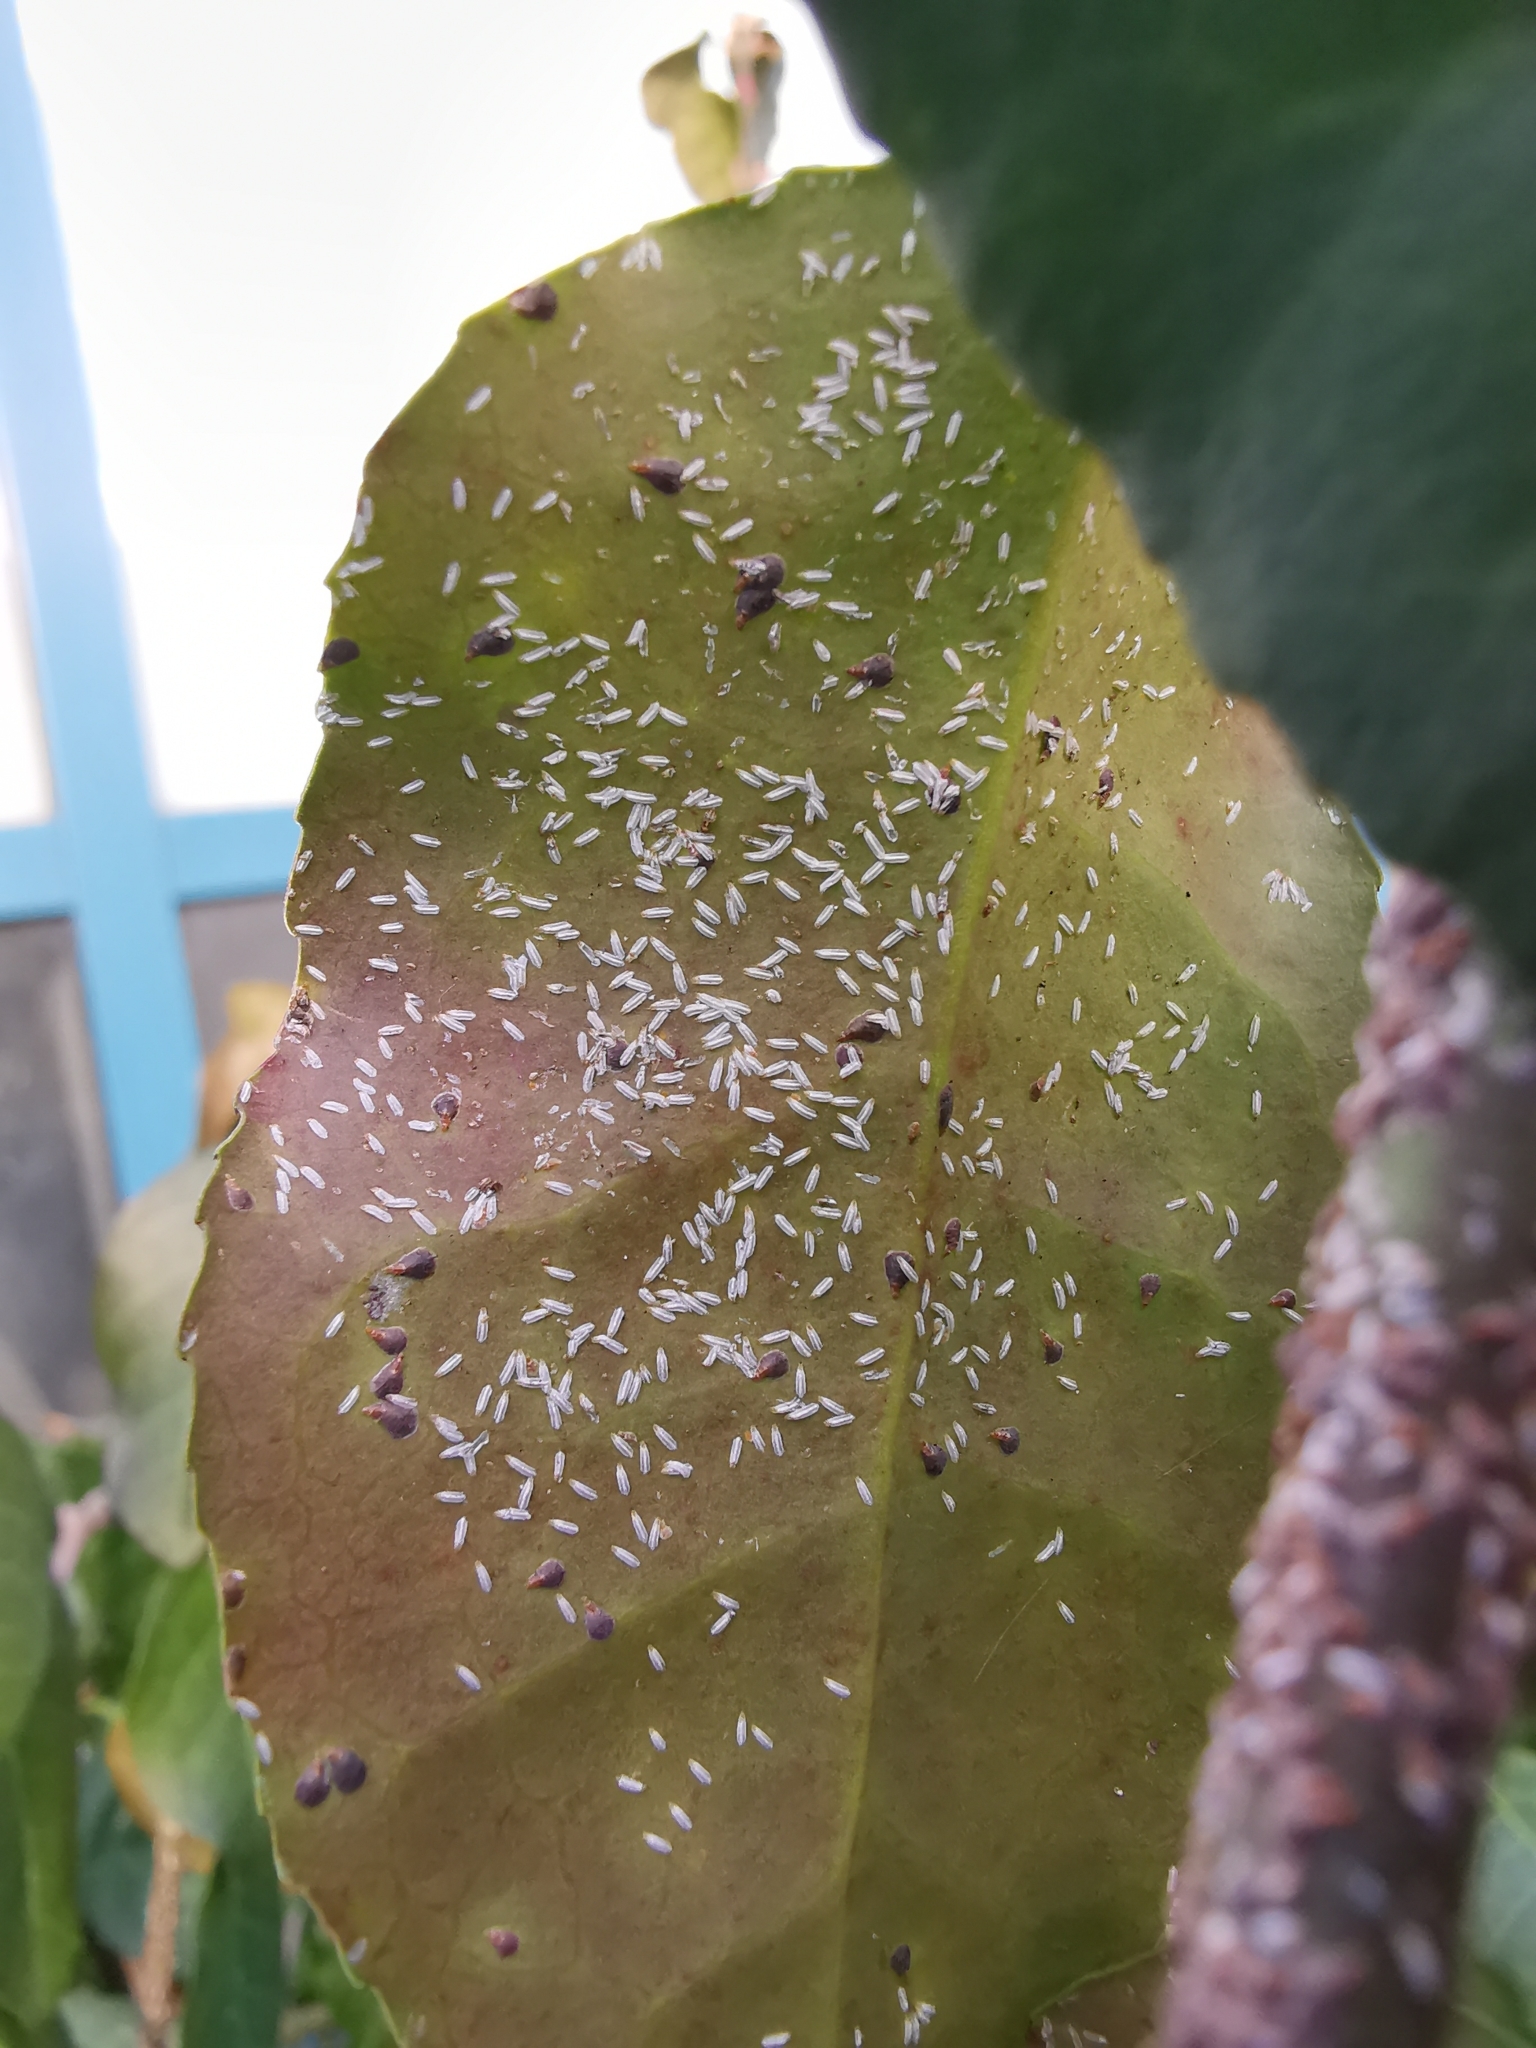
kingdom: Animalia
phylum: Arthropoda
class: Insecta
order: Hemiptera
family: Diaspididae
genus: Unaspis
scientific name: Unaspis euonymi
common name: Euonymus scale
